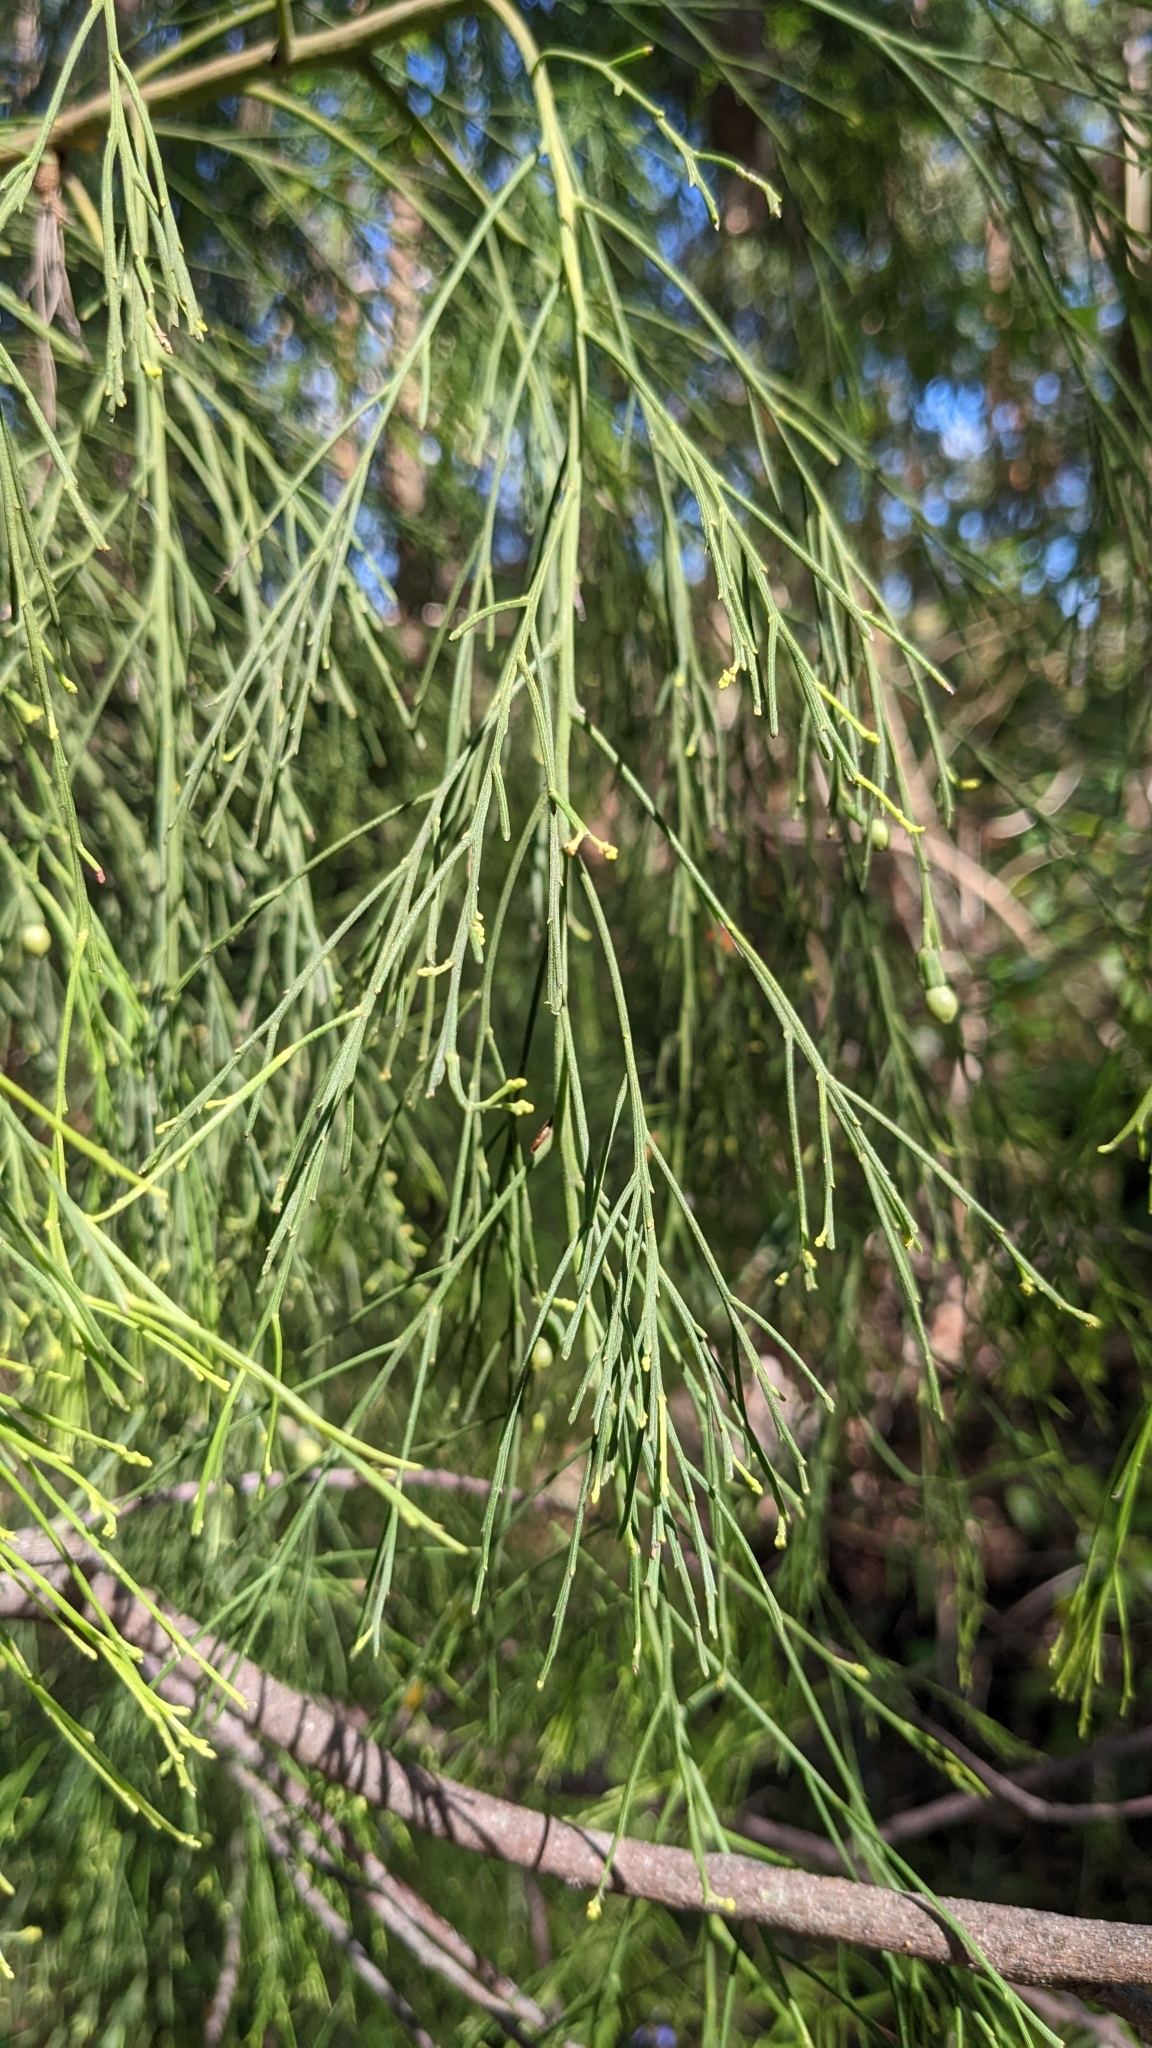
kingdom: Plantae
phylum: Tracheophyta
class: Magnoliopsida
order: Santalales
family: Santalaceae
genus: Exocarpos
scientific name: Exocarpos cupressiformis
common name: Cherry ballart
